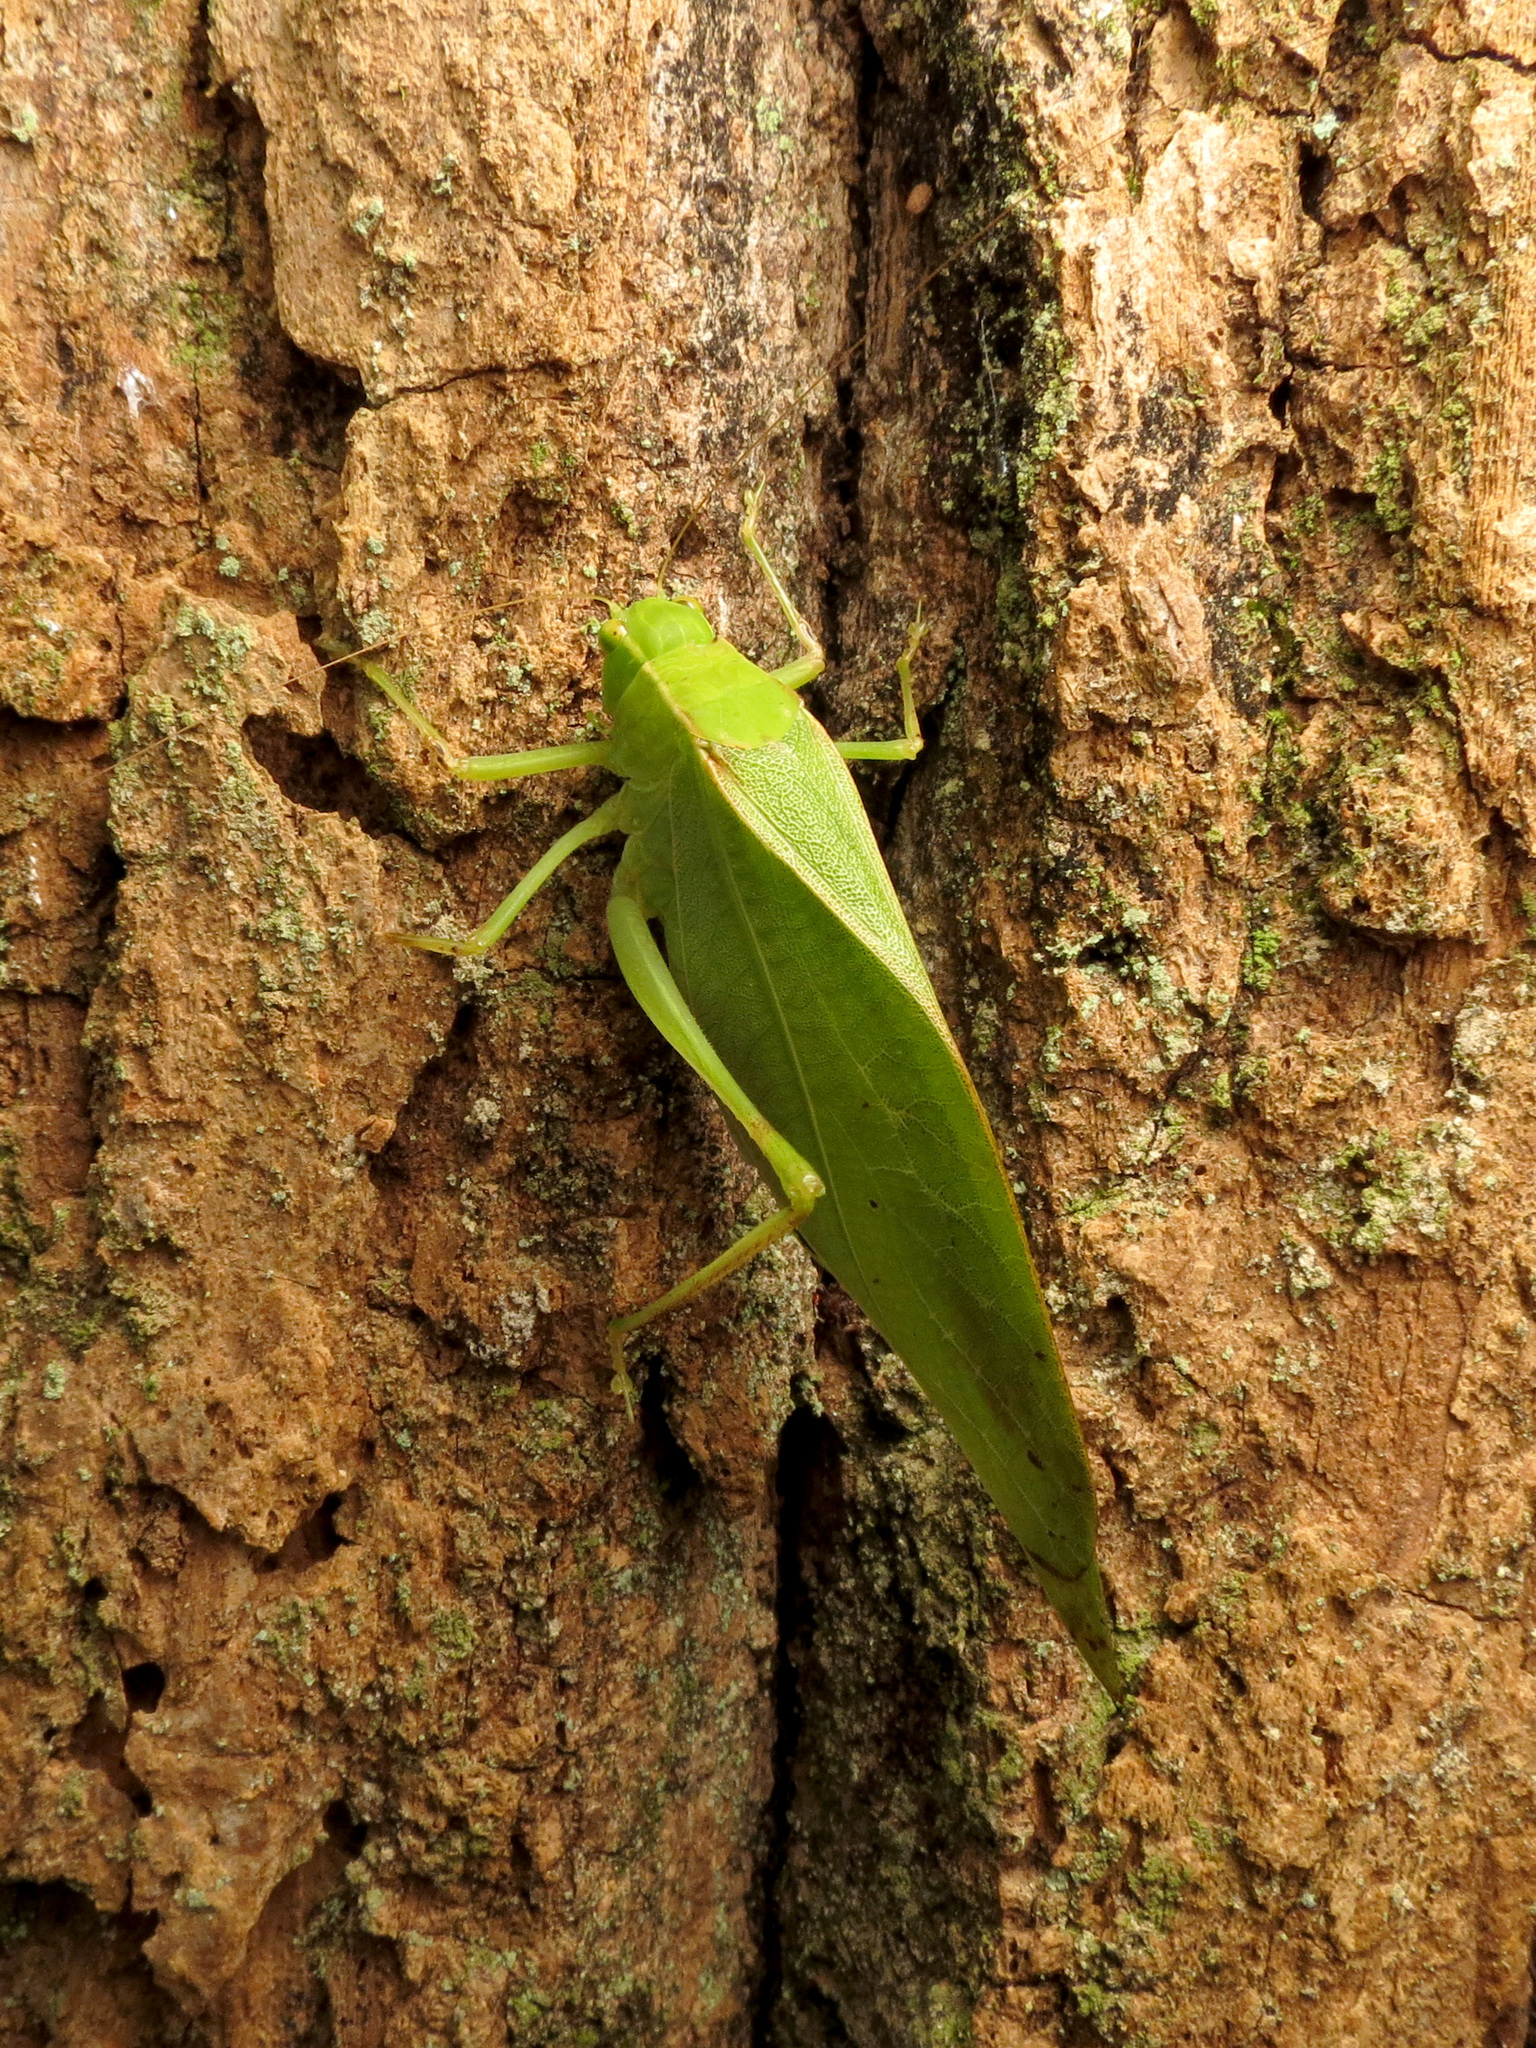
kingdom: Animalia
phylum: Arthropoda
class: Insecta
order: Orthoptera
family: Tettigoniidae
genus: Microcentrum
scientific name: Microcentrum retinerve
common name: Angular-winged katydid
